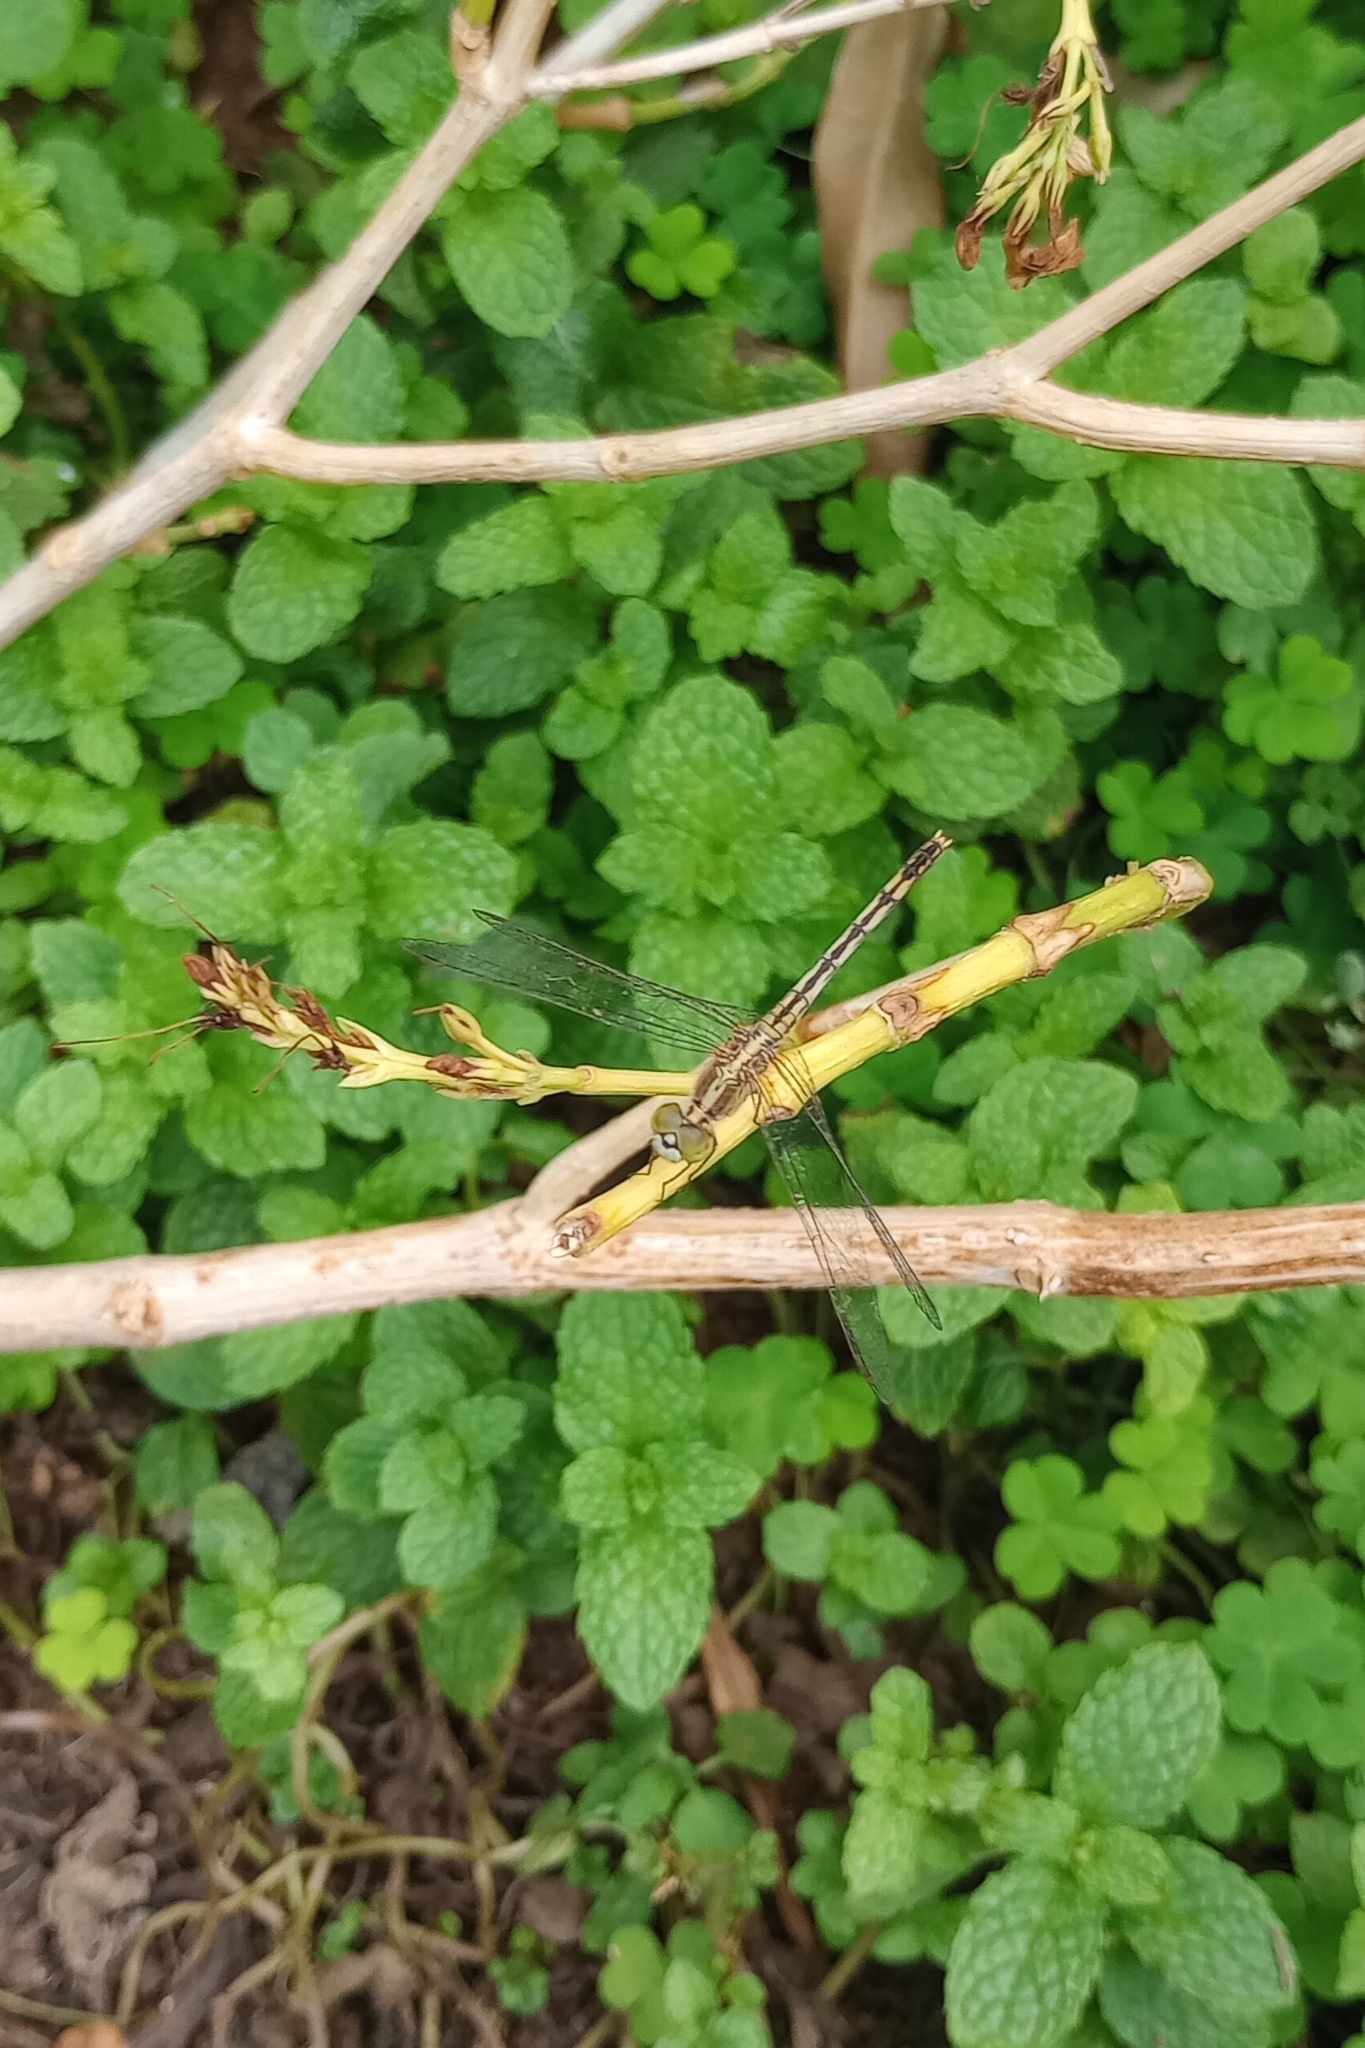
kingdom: Animalia
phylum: Arthropoda
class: Insecta
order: Odonata
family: Libellulidae
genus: Diplacodes
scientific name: Diplacodes trivialis
